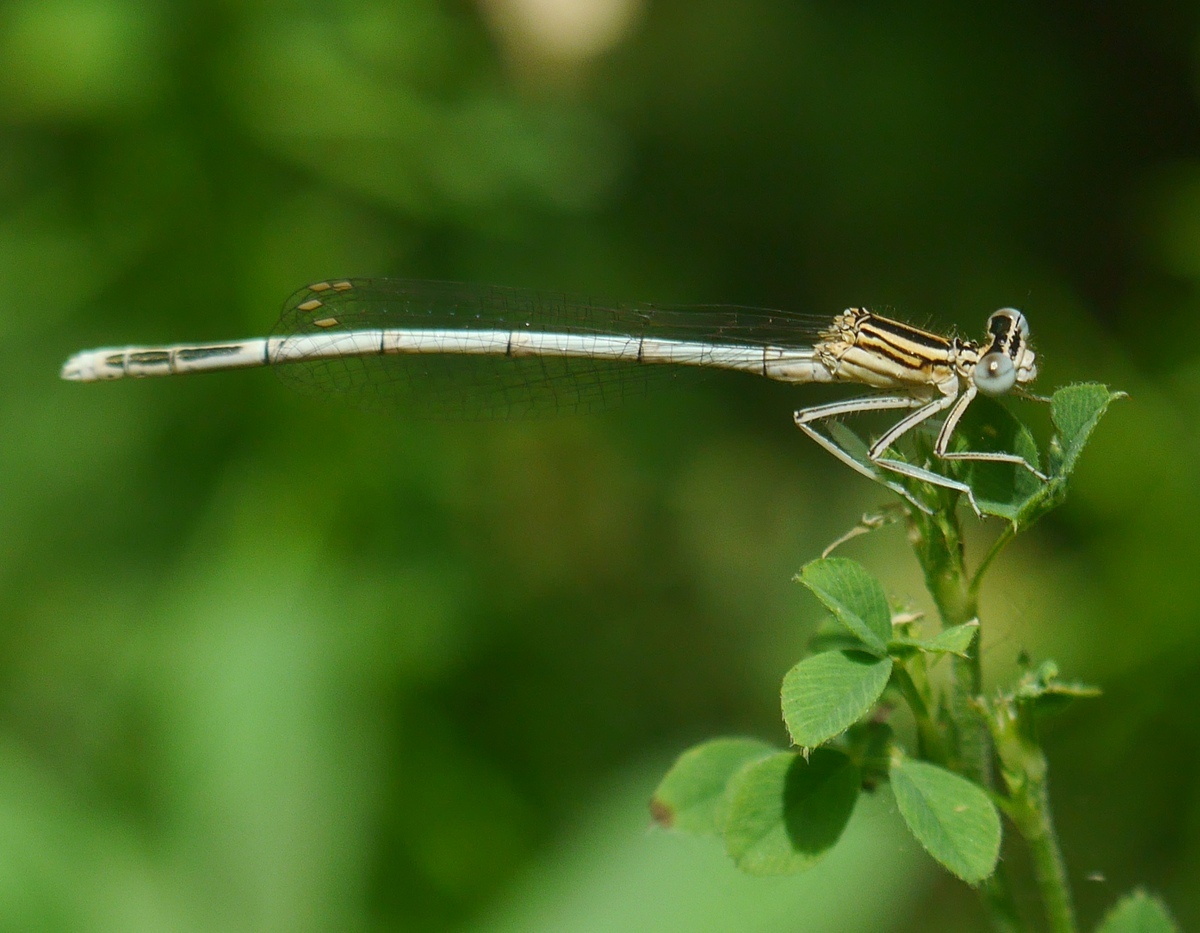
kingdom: Animalia
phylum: Arthropoda
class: Insecta
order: Odonata
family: Platycnemididae
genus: Platycnemis
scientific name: Platycnemis pennipes
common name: White-legged damselfly
